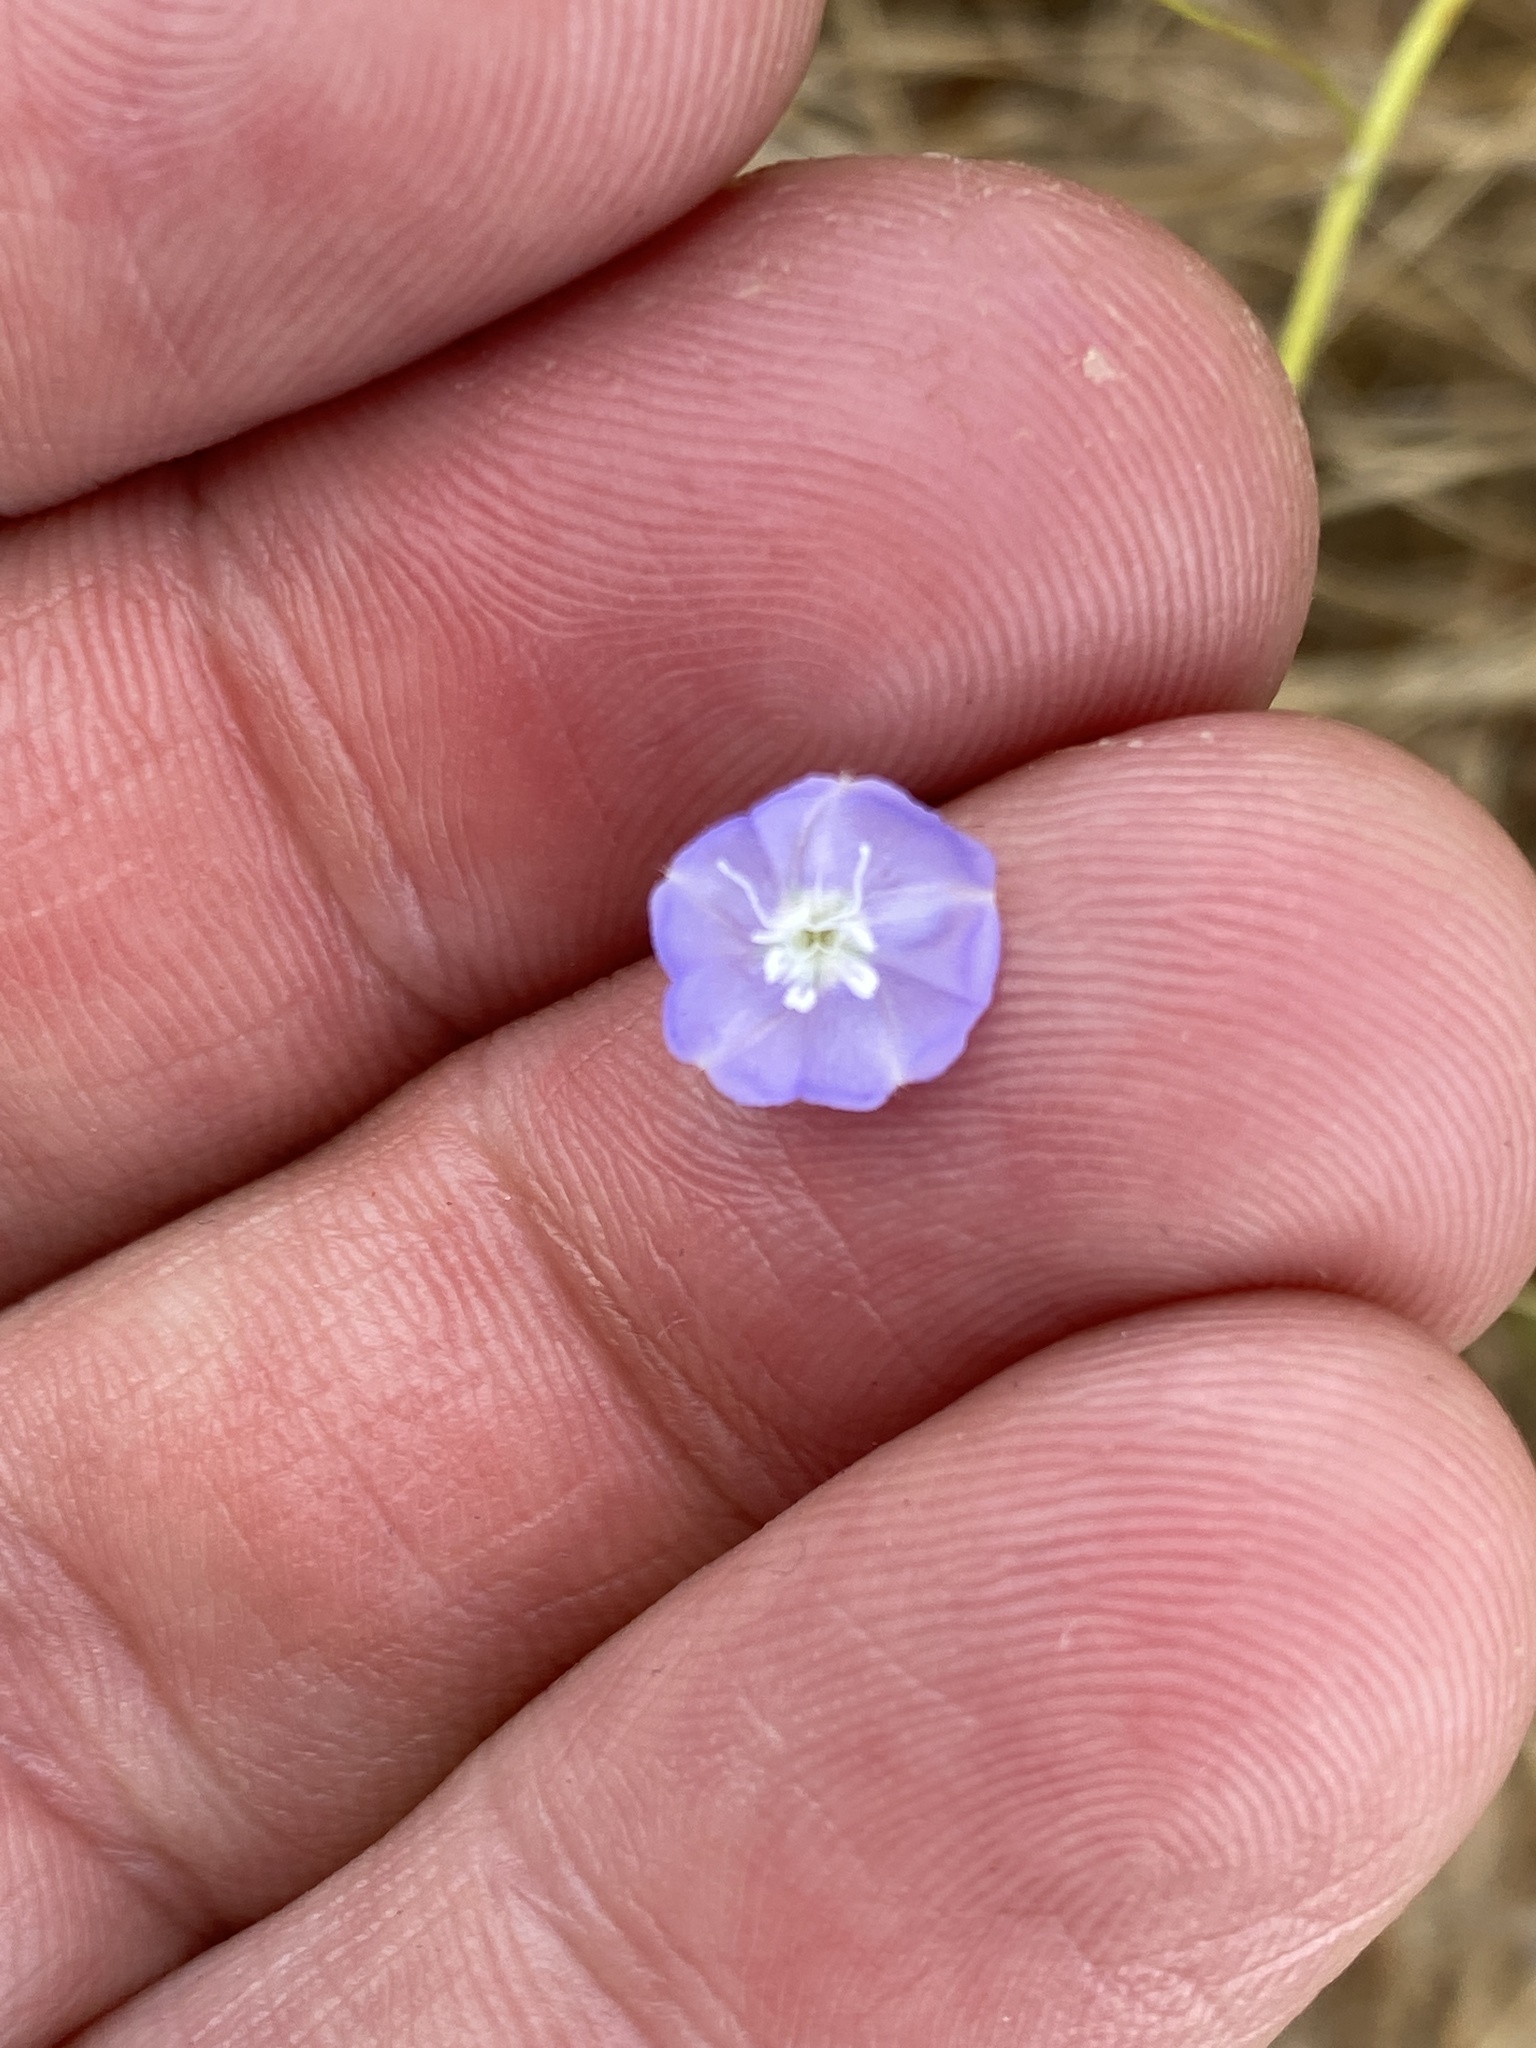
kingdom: Plantae
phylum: Tracheophyta
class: Magnoliopsida
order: Solanales
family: Convolvulaceae
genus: Evolvulus
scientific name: Evolvulus alsinoides
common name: Slender dwarf morning-glory
